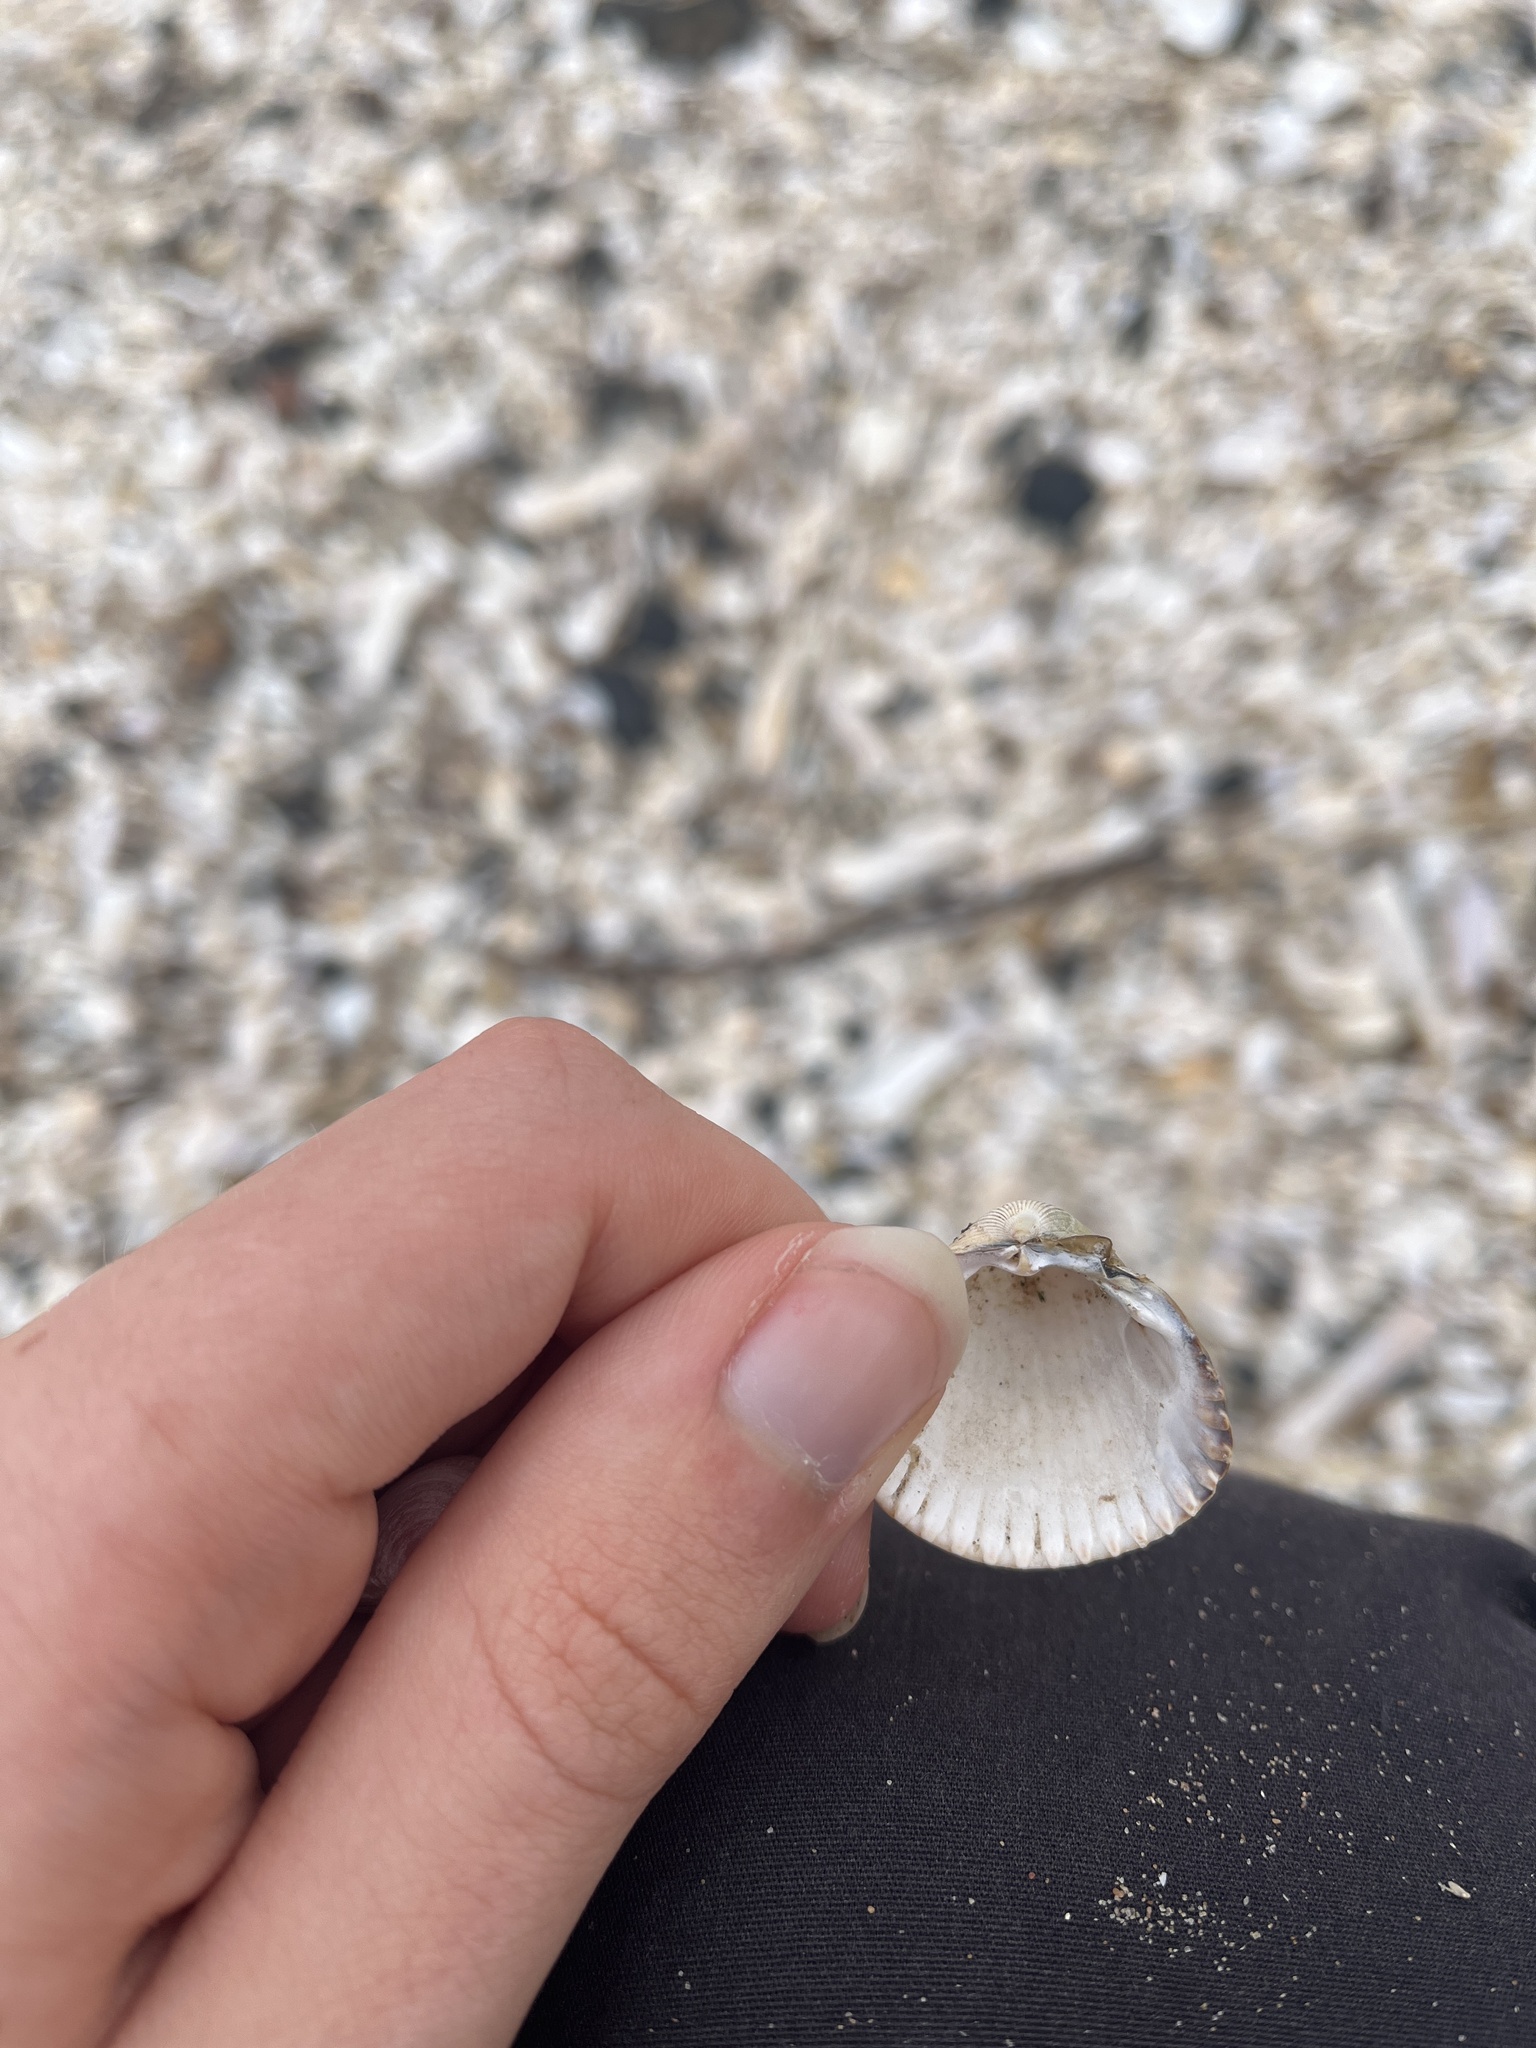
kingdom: Animalia
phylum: Mollusca
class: Bivalvia
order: Cardiida
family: Cardiidae
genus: Cerastoderma
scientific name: Cerastoderma edule
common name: Common cockle
